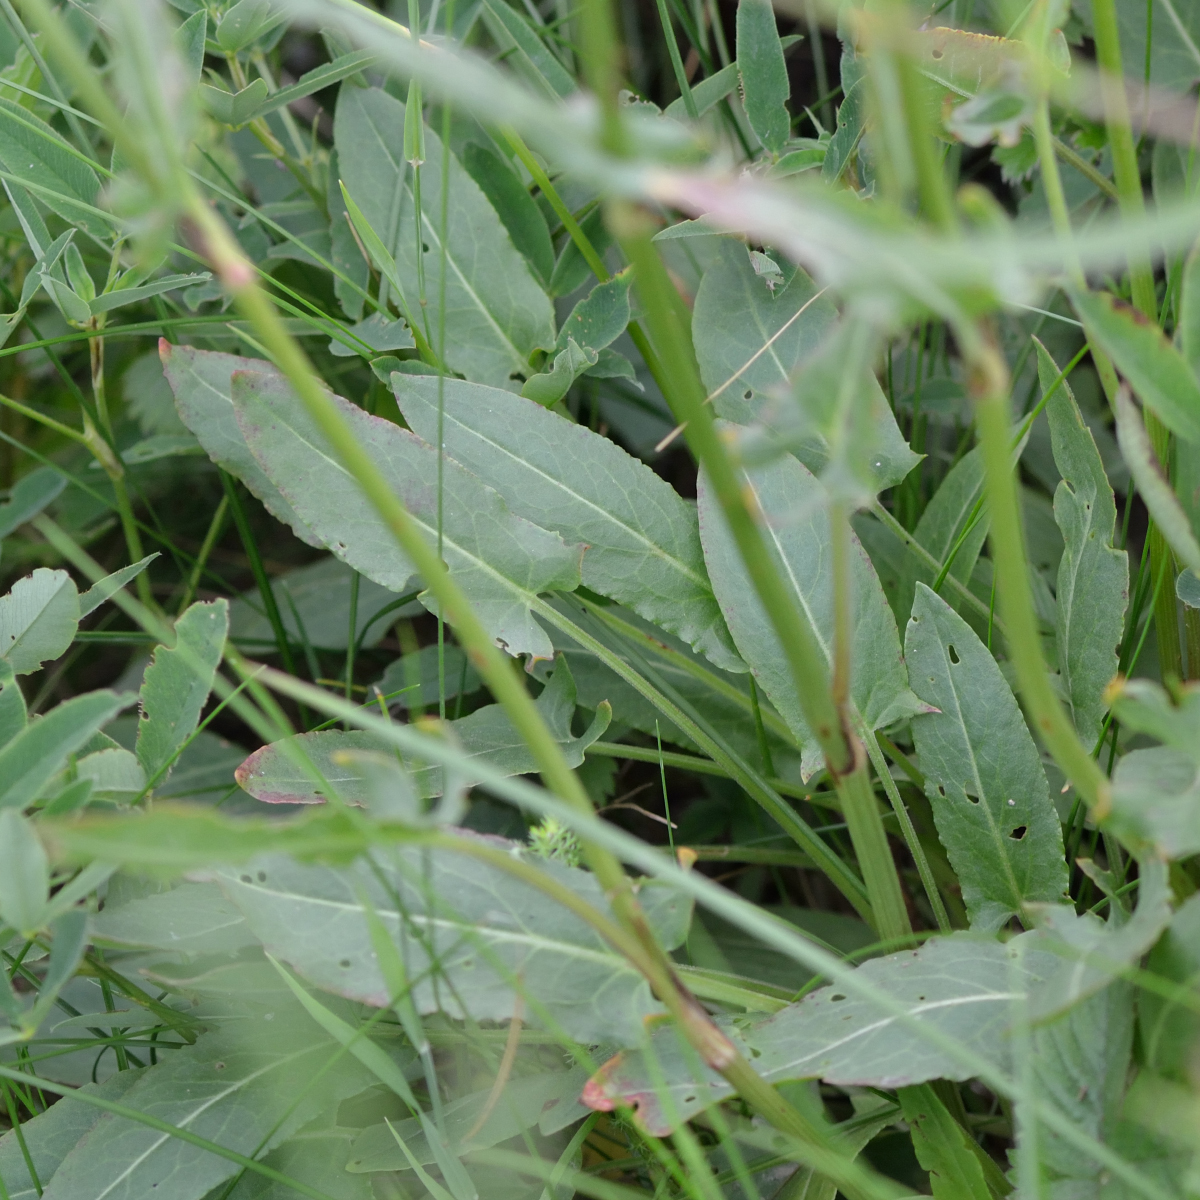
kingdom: Plantae
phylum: Tracheophyta
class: Magnoliopsida
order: Caryophyllales
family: Polygonaceae
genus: Rumex
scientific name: Rumex thyrsiflorus
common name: Garden sorrel
